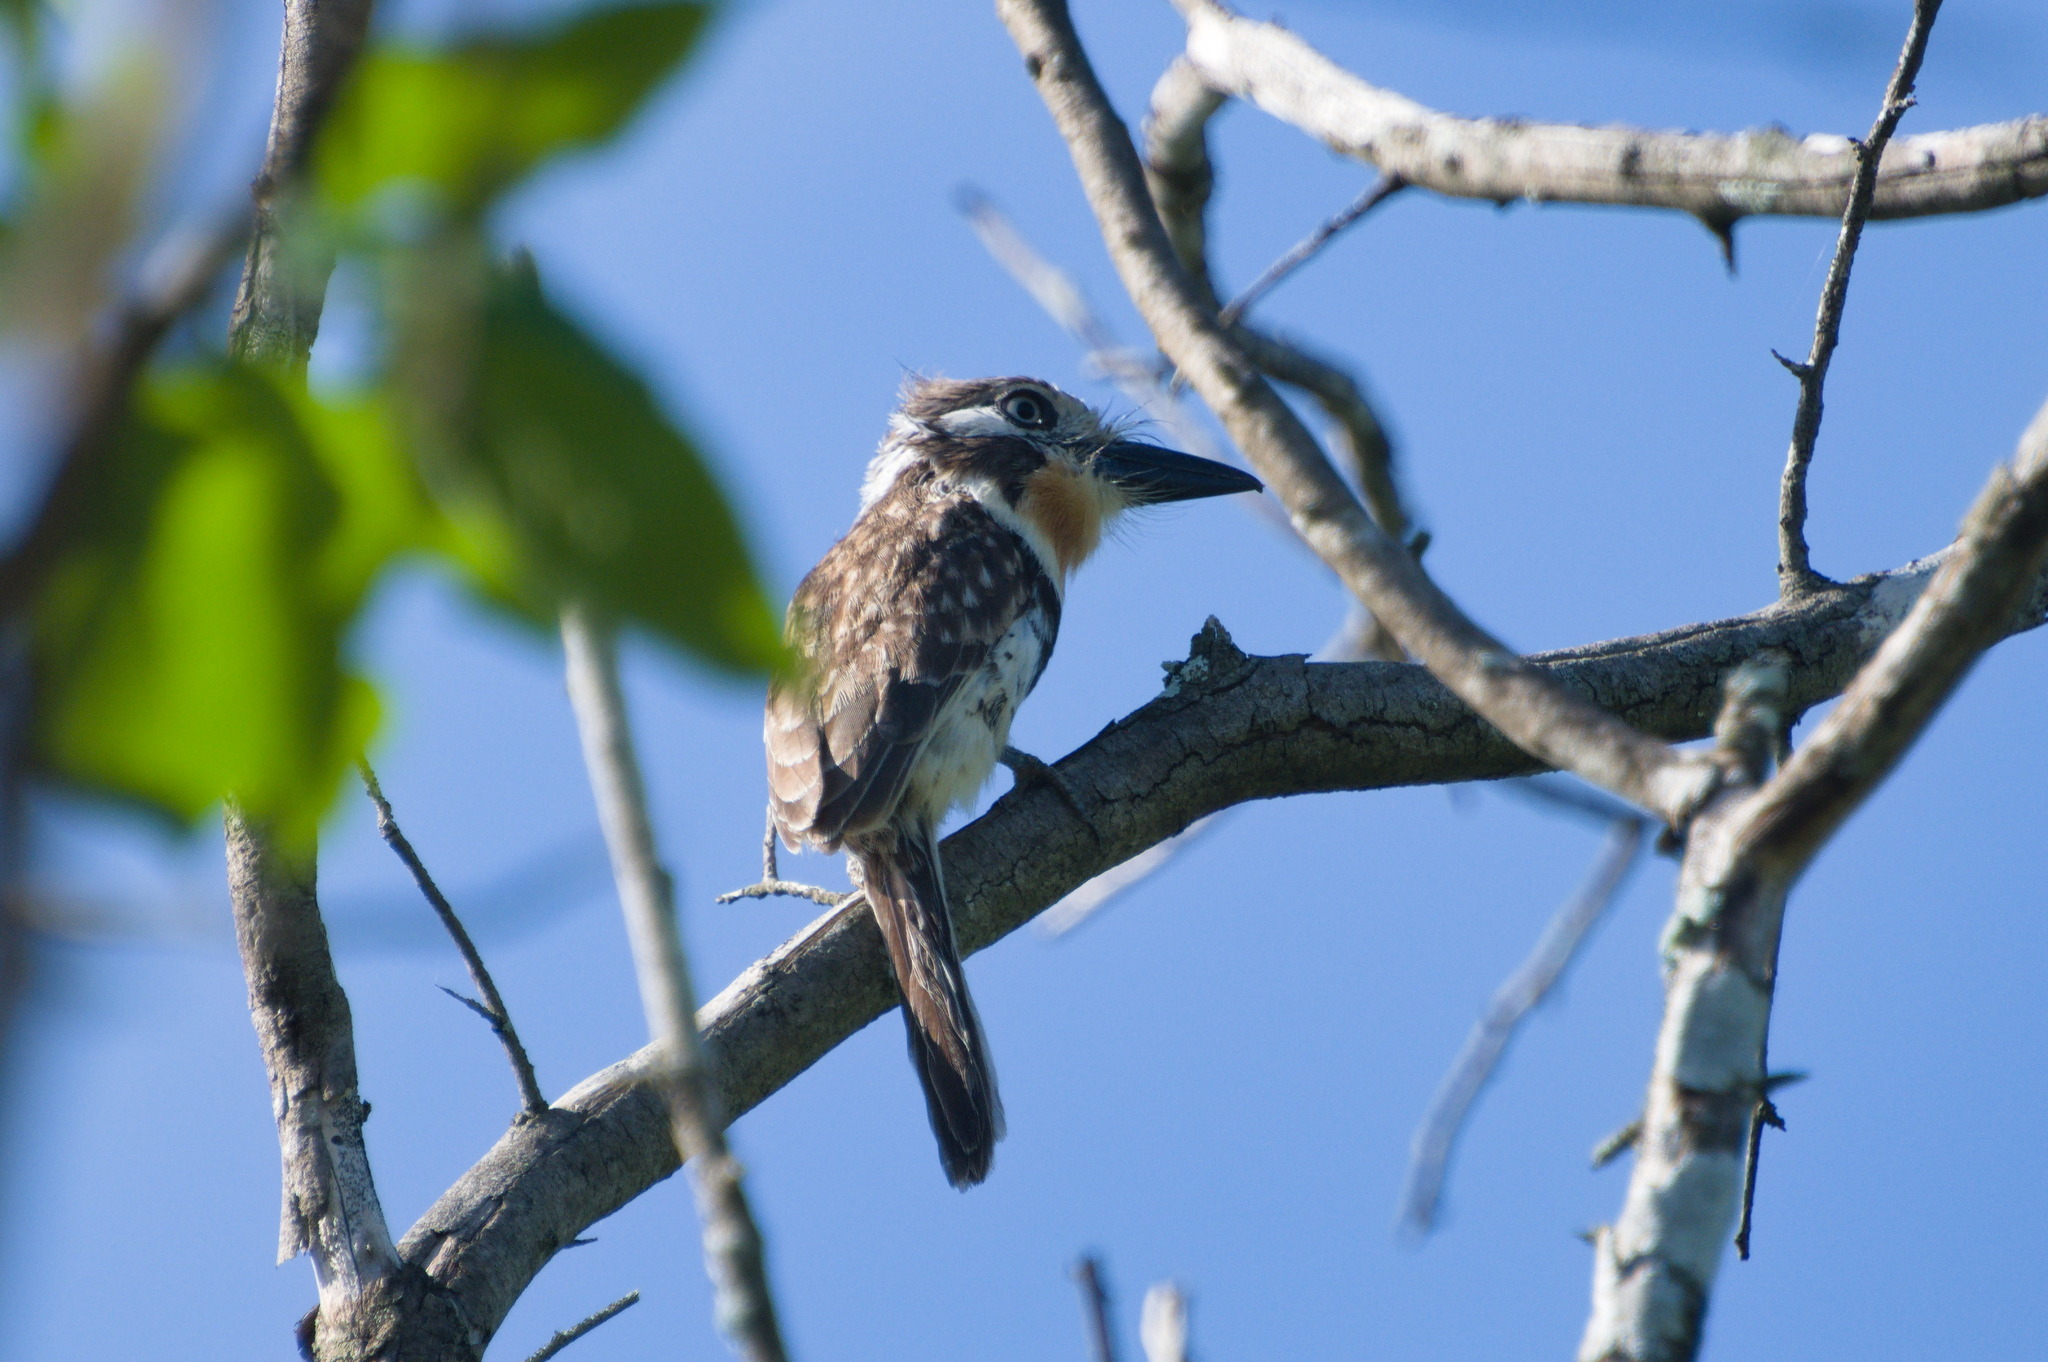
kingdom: Animalia
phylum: Chordata
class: Aves
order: Piciformes
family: Bucconidae
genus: Hypnelus
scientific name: Hypnelus ruficollis
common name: Russet-throated puffbird
